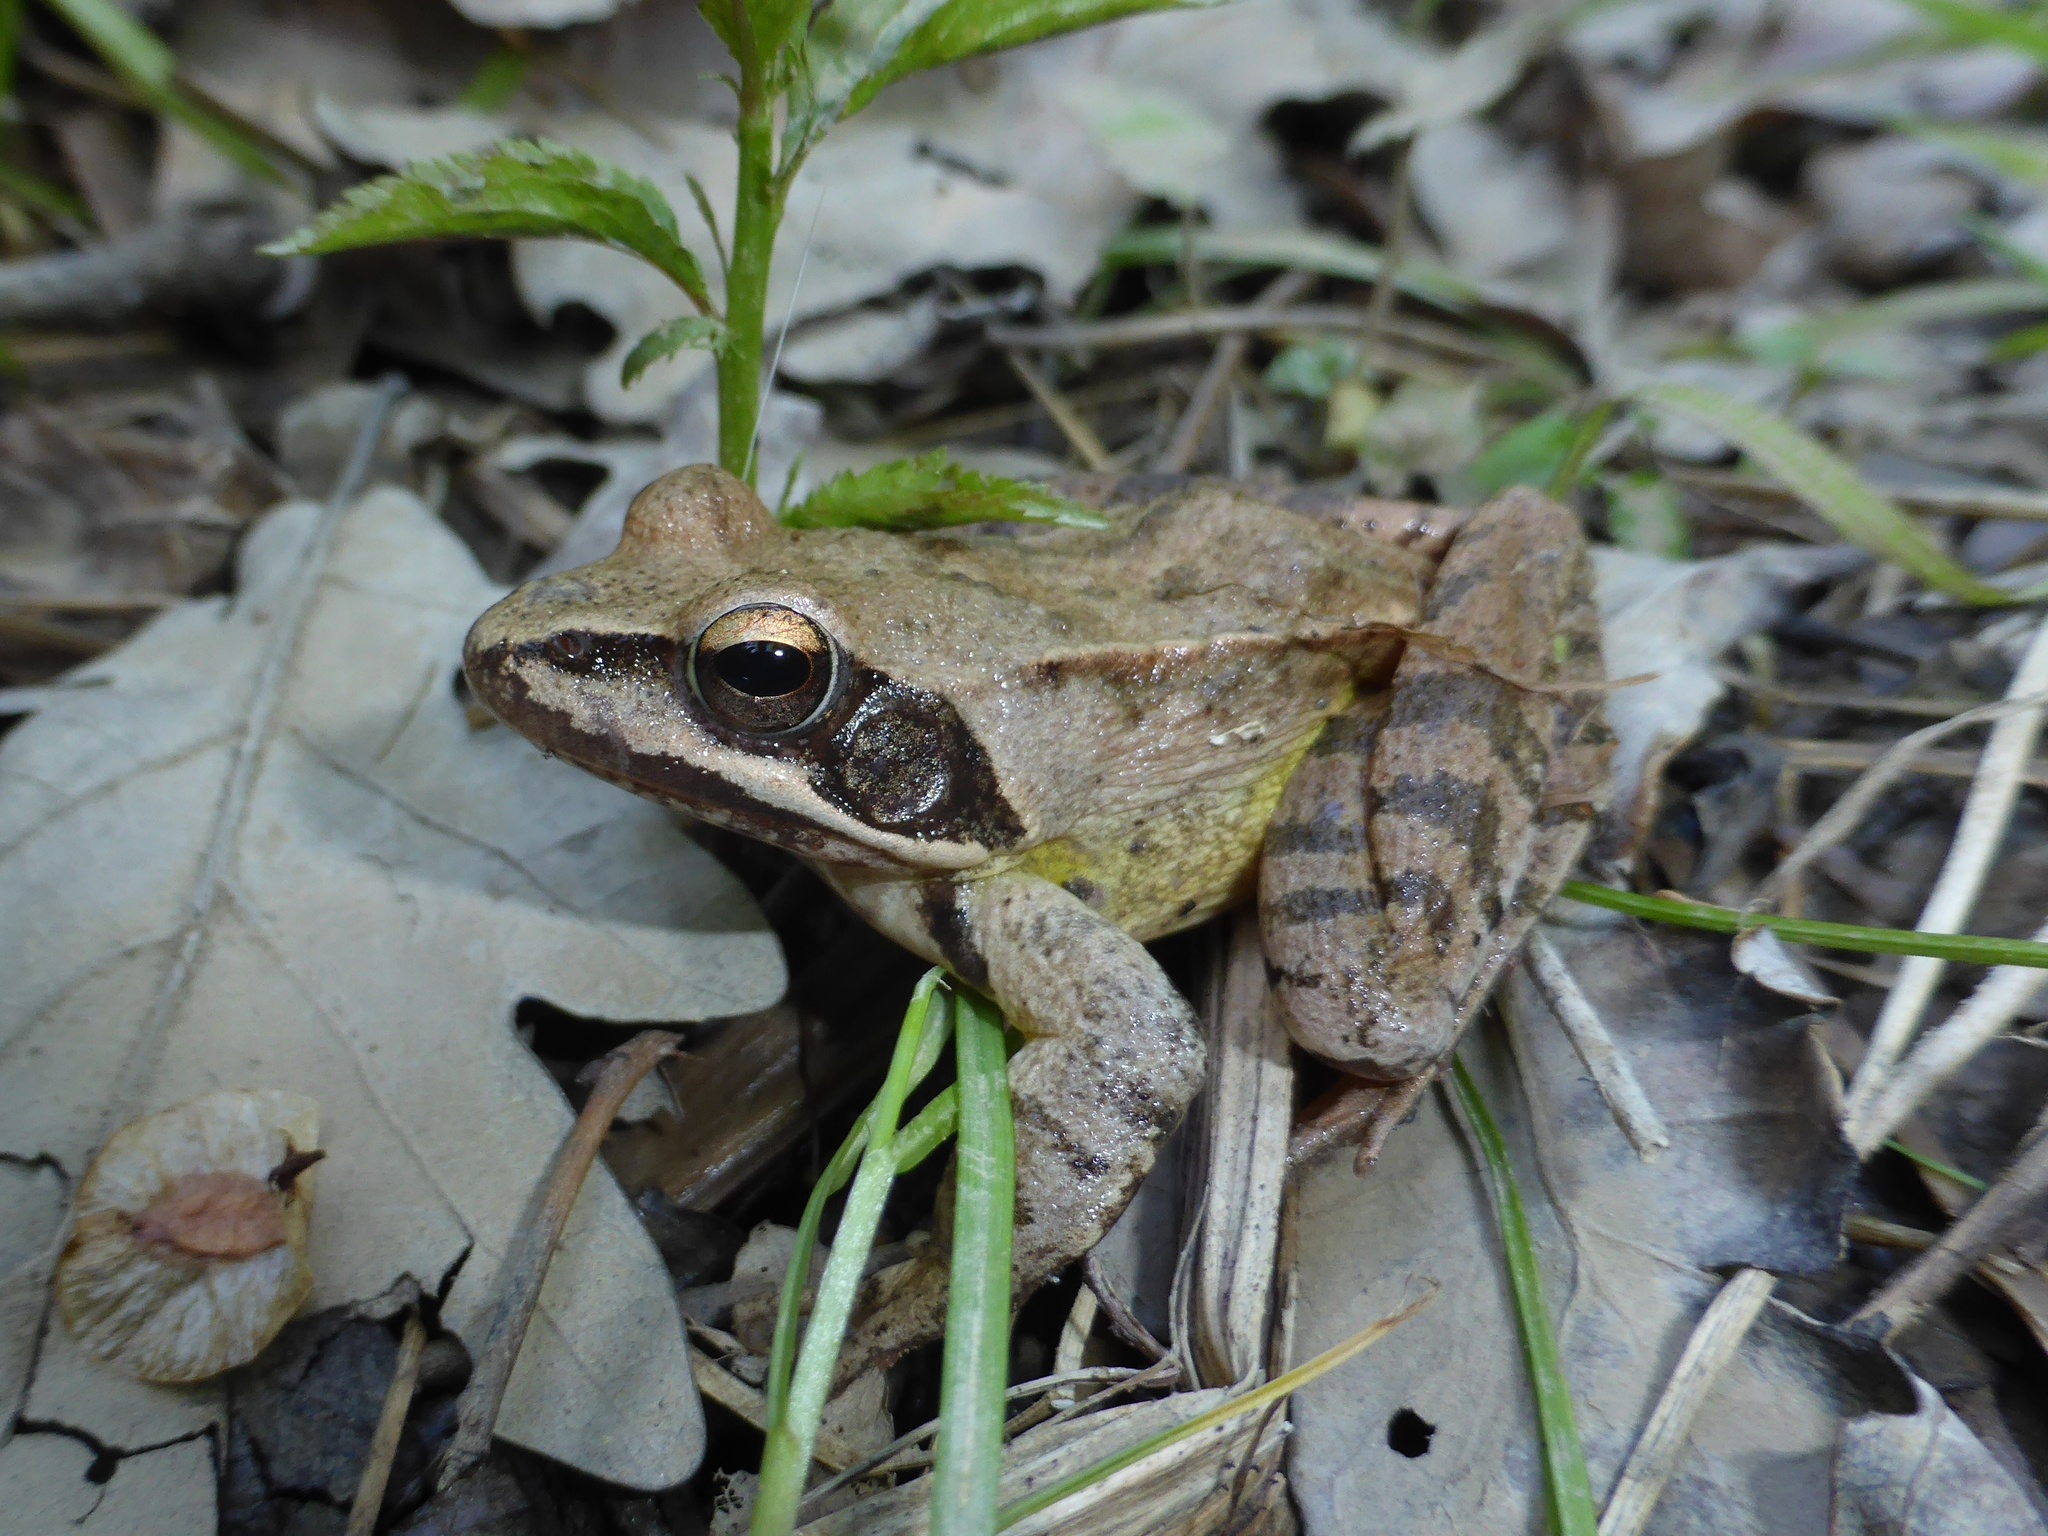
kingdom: Animalia
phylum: Chordata
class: Amphibia
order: Anura
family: Ranidae
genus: Rana
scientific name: Rana dalmatina
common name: Agile frog
